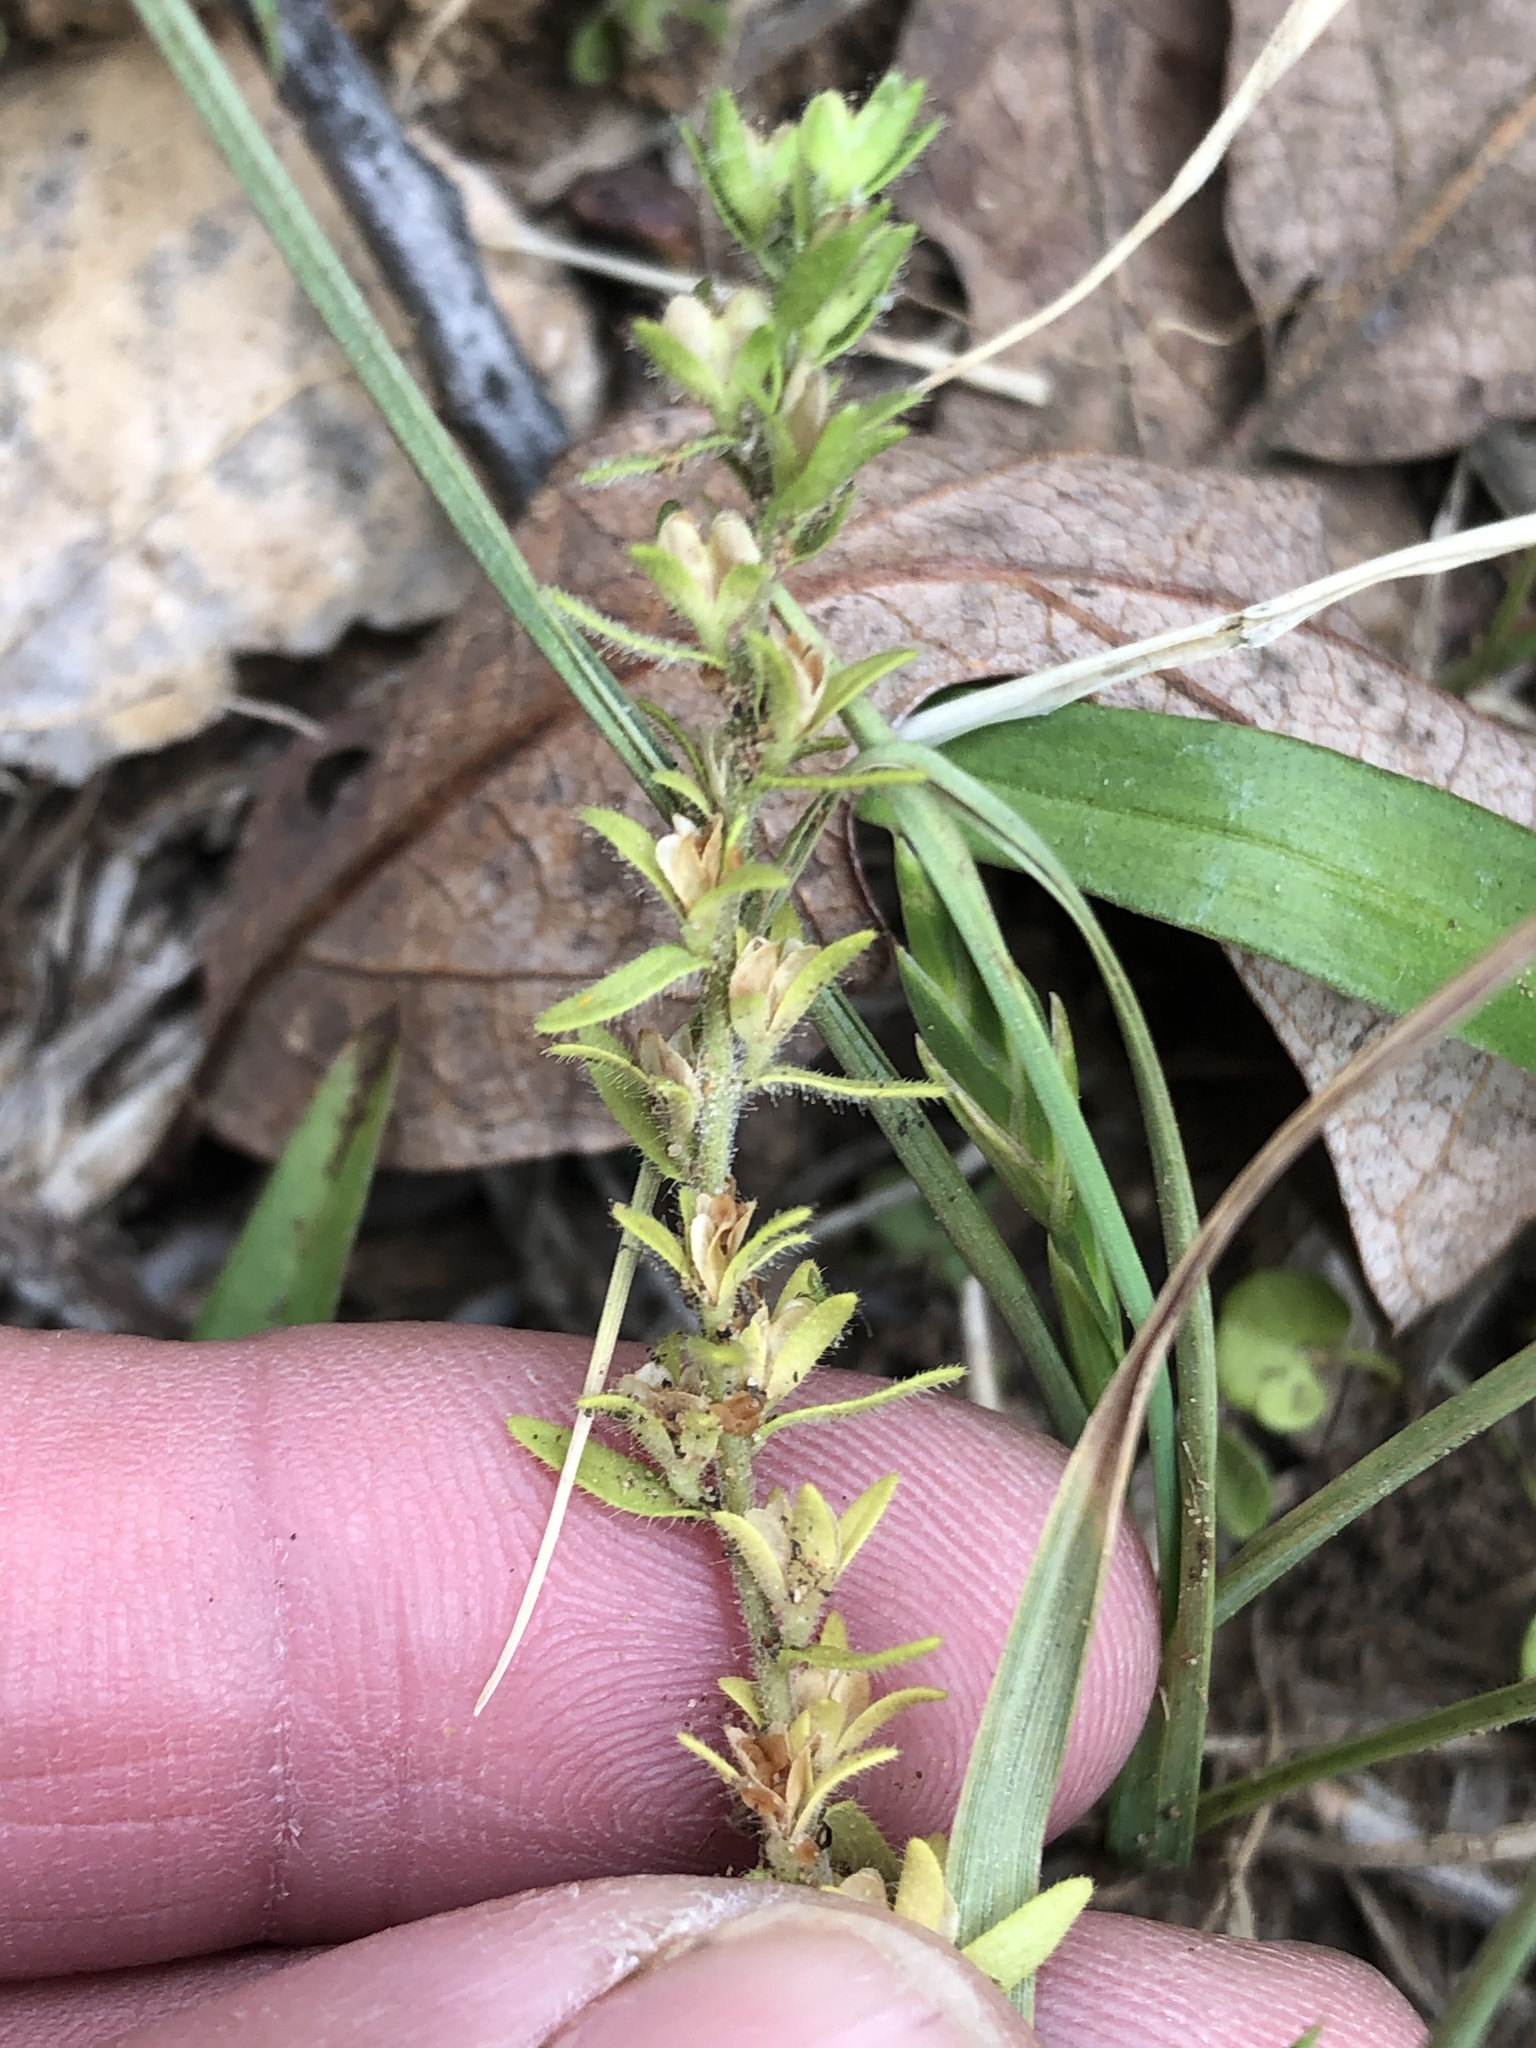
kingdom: Plantae
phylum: Tracheophyta
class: Magnoliopsida
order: Lamiales
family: Plantaginaceae
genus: Veronica
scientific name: Veronica arvensis
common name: Corn speedwell
